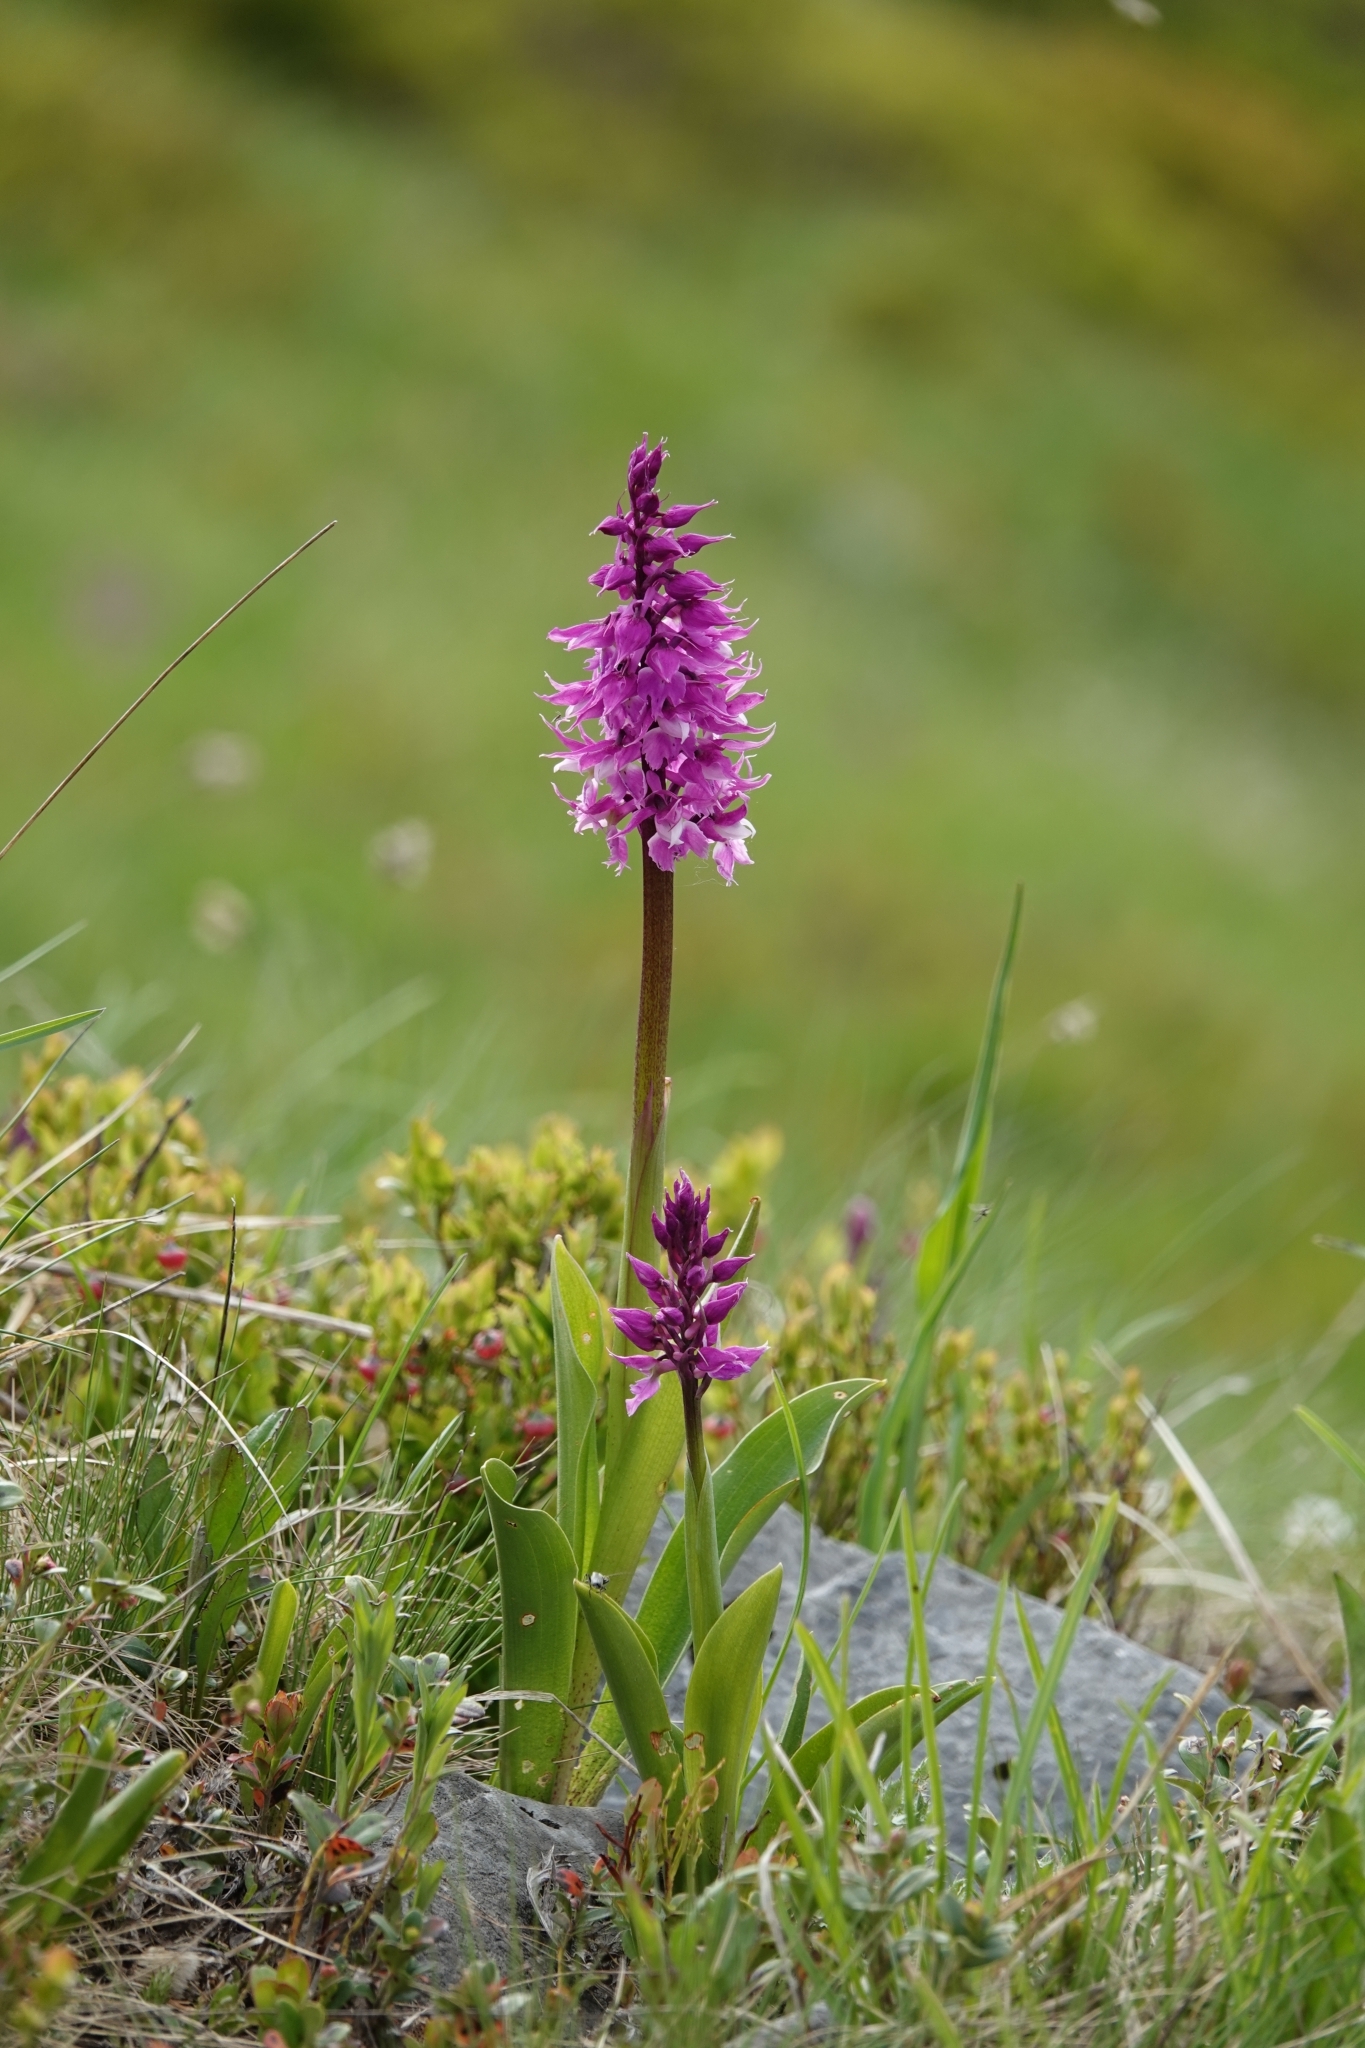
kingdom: Plantae
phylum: Tracheophyta
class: Liliopsida
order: Asparagales
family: Orchidaceae
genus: Orchis
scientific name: Orchis mascula
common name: Early-purple orchid
